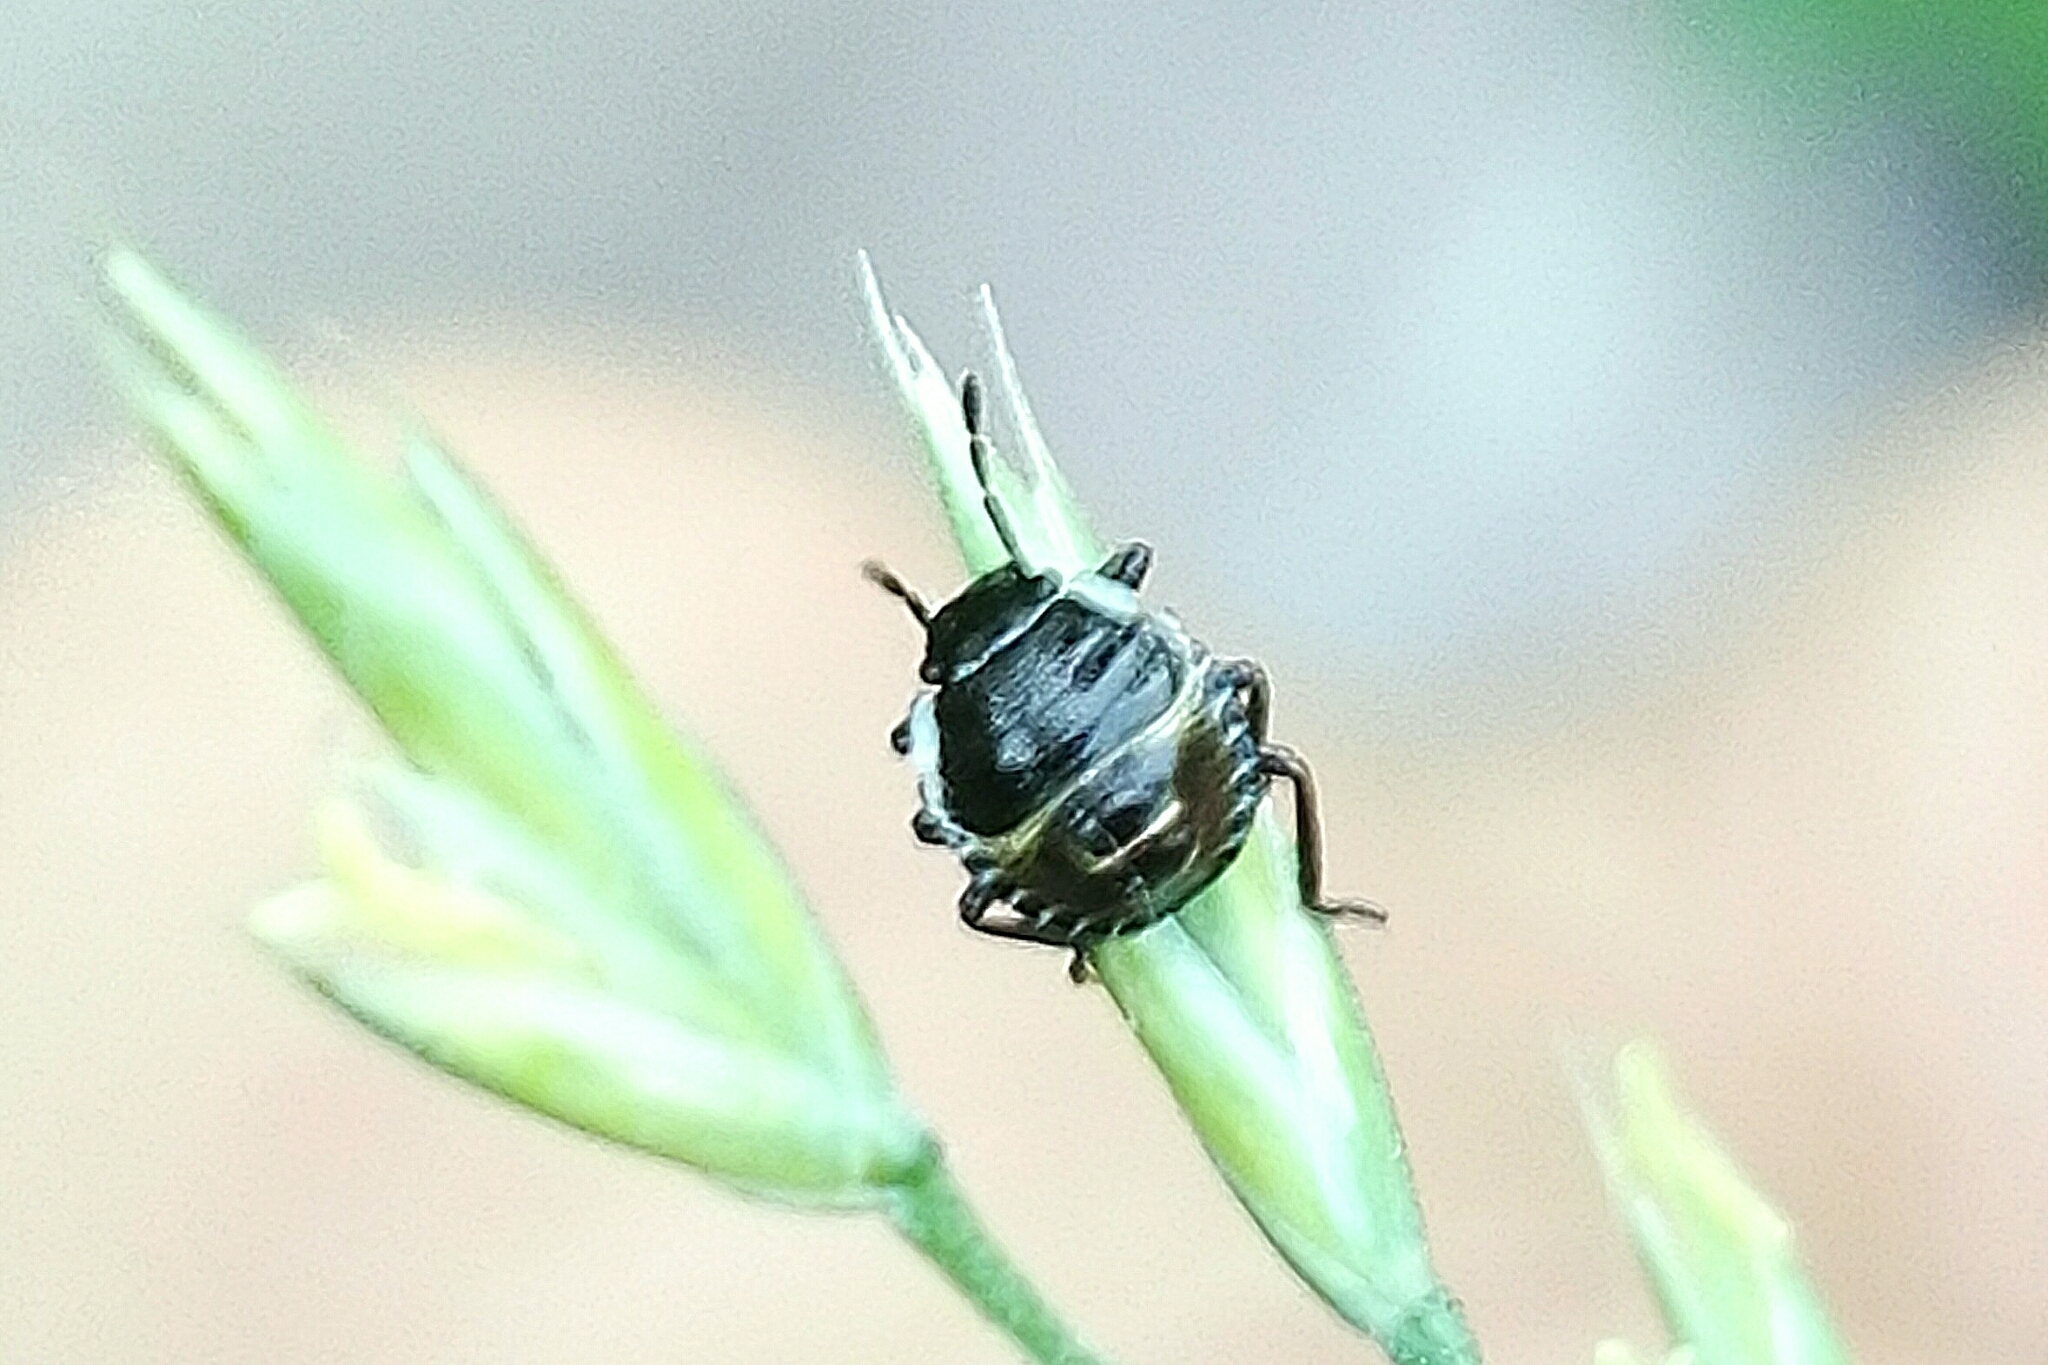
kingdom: Animalia
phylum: Arthropoda
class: Insecta
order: Hemiptera
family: Pentatomidae
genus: Palomena
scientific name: Palomena prasina
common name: Green shieldbug
